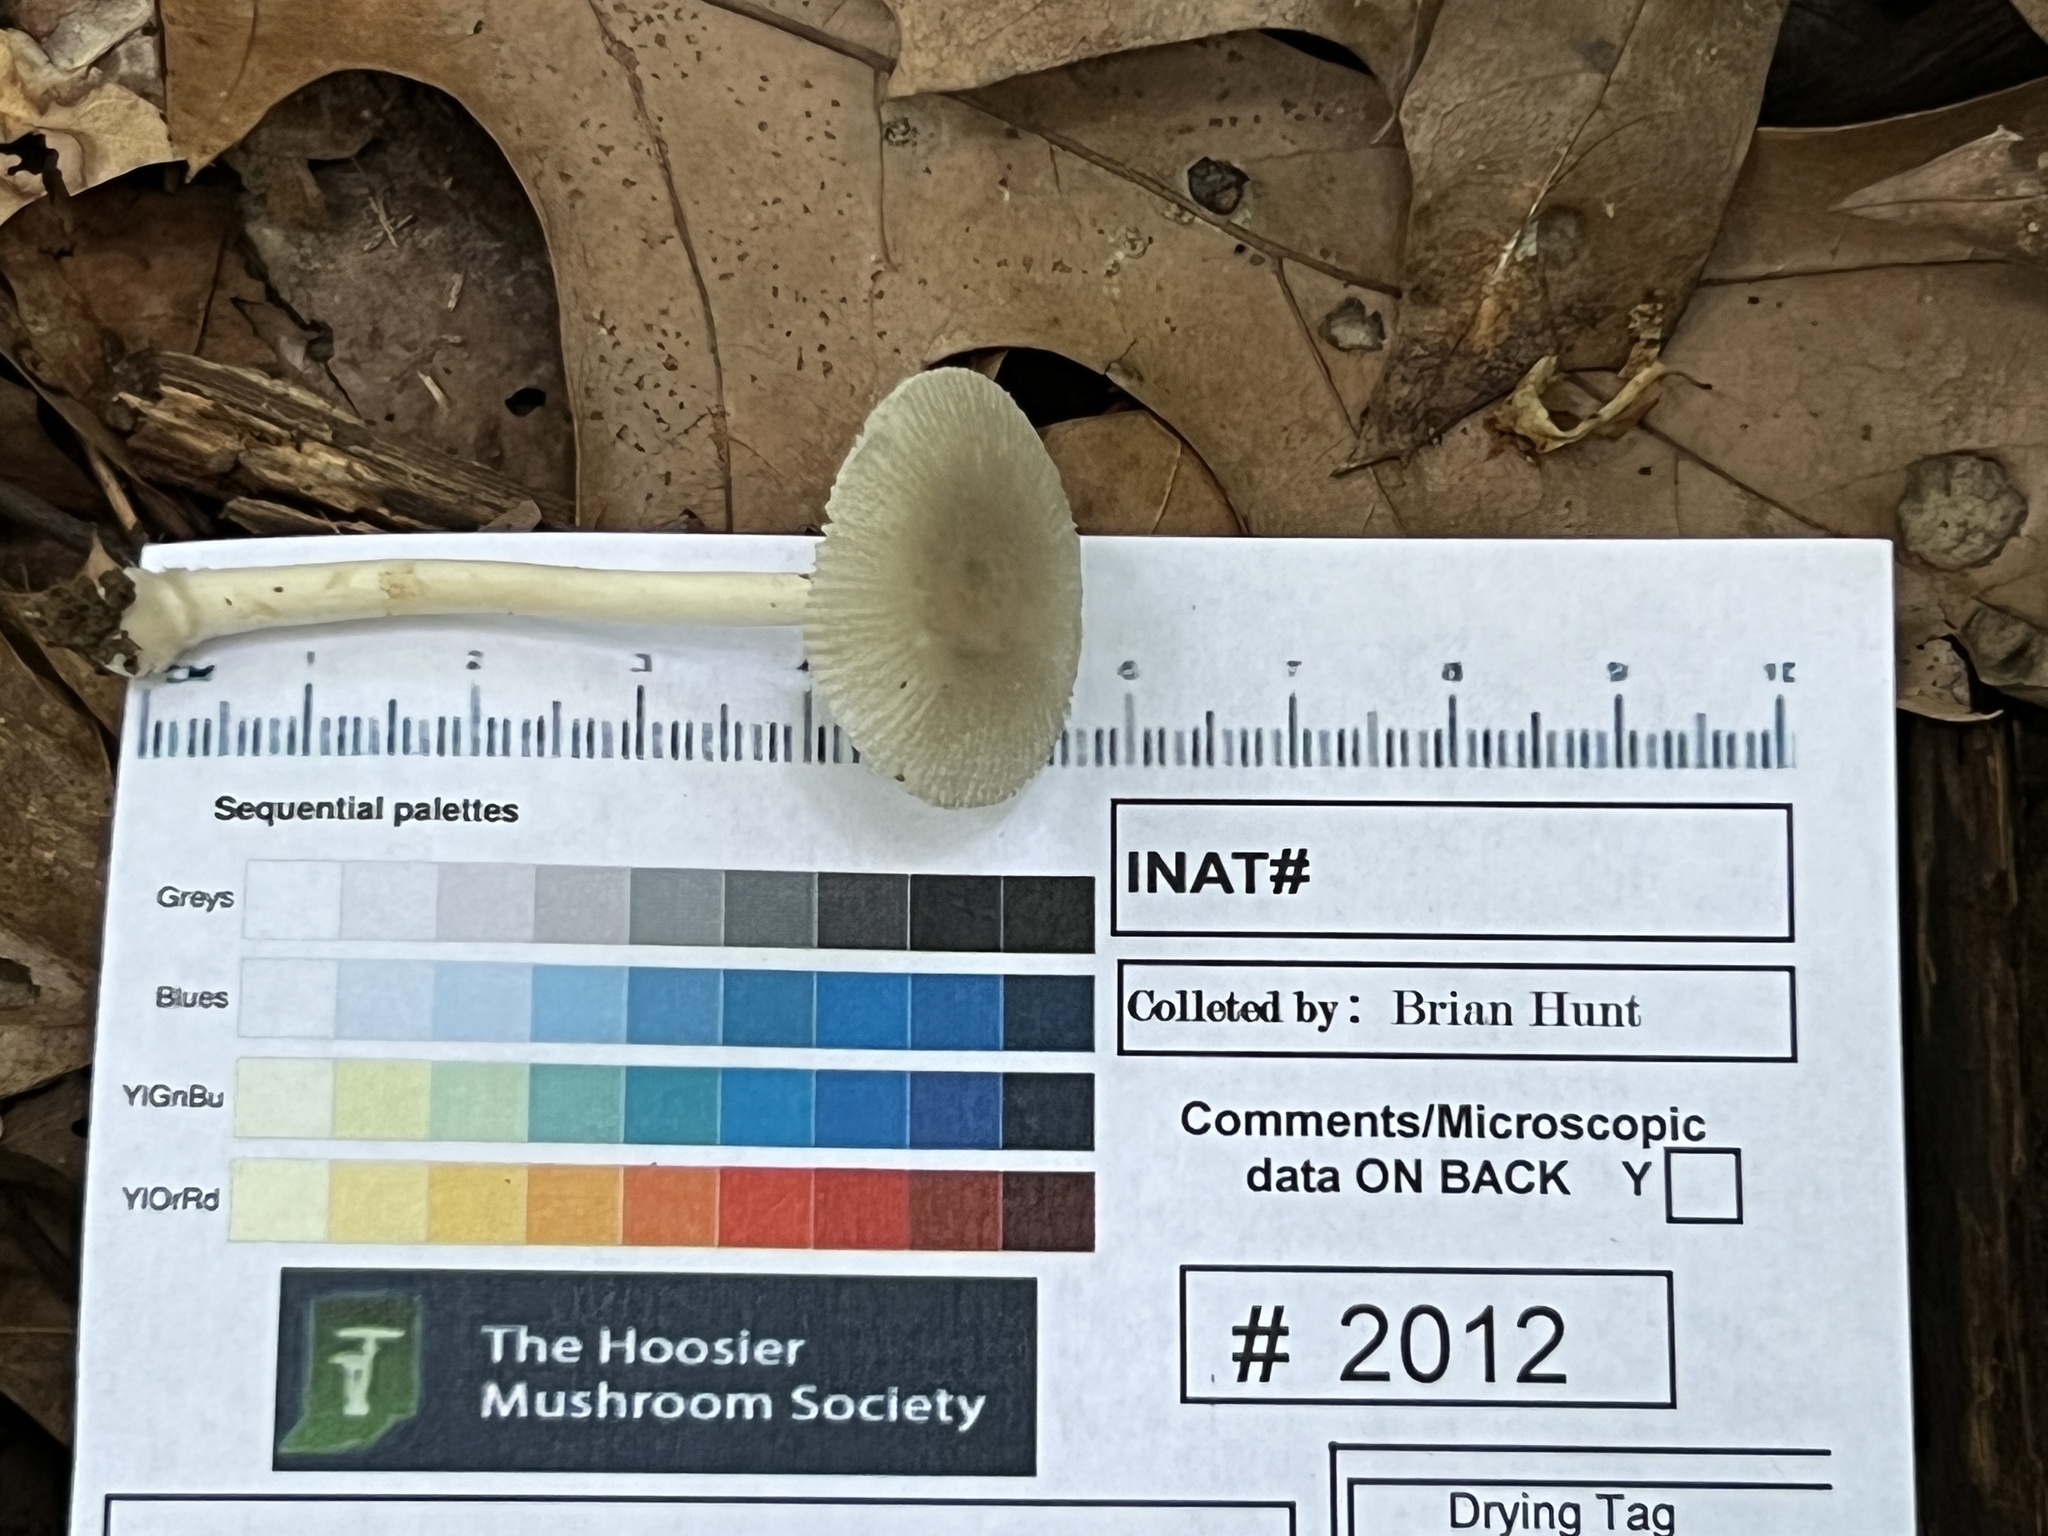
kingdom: Fungi
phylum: Basidiomycota
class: Agaricomycetes
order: Agaricales
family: Amanitaceae
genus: Amanita
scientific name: Amanita farinosa
